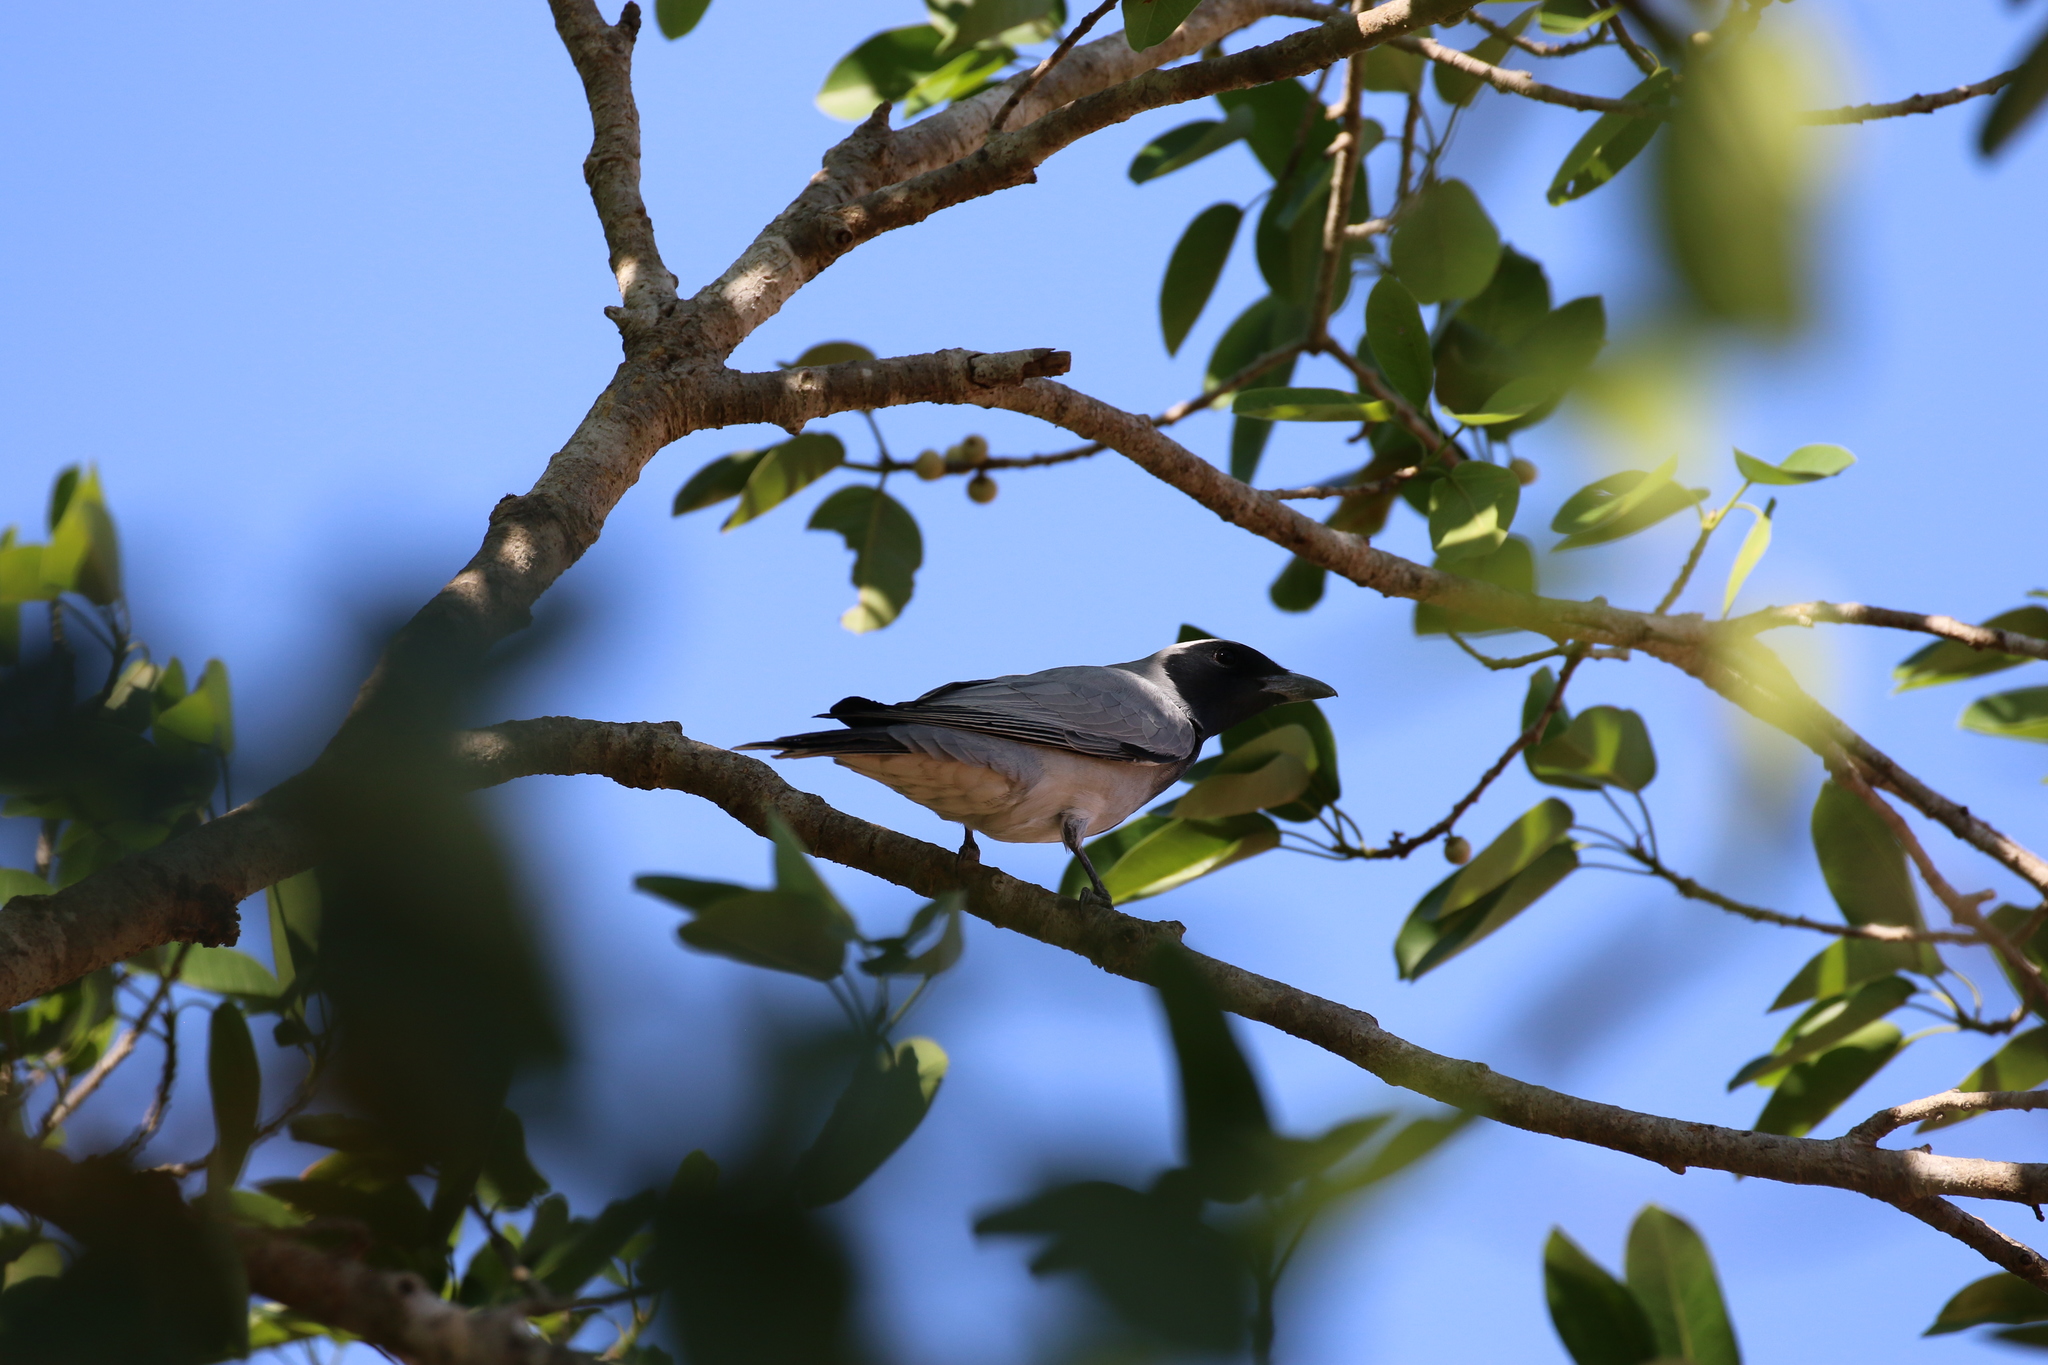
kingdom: Animalia
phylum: Chordata
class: Aves
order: Passeriformes
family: Campephagidae
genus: Coracina
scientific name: Coracina novaehollandiae
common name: Black-faced cuckooshrike
